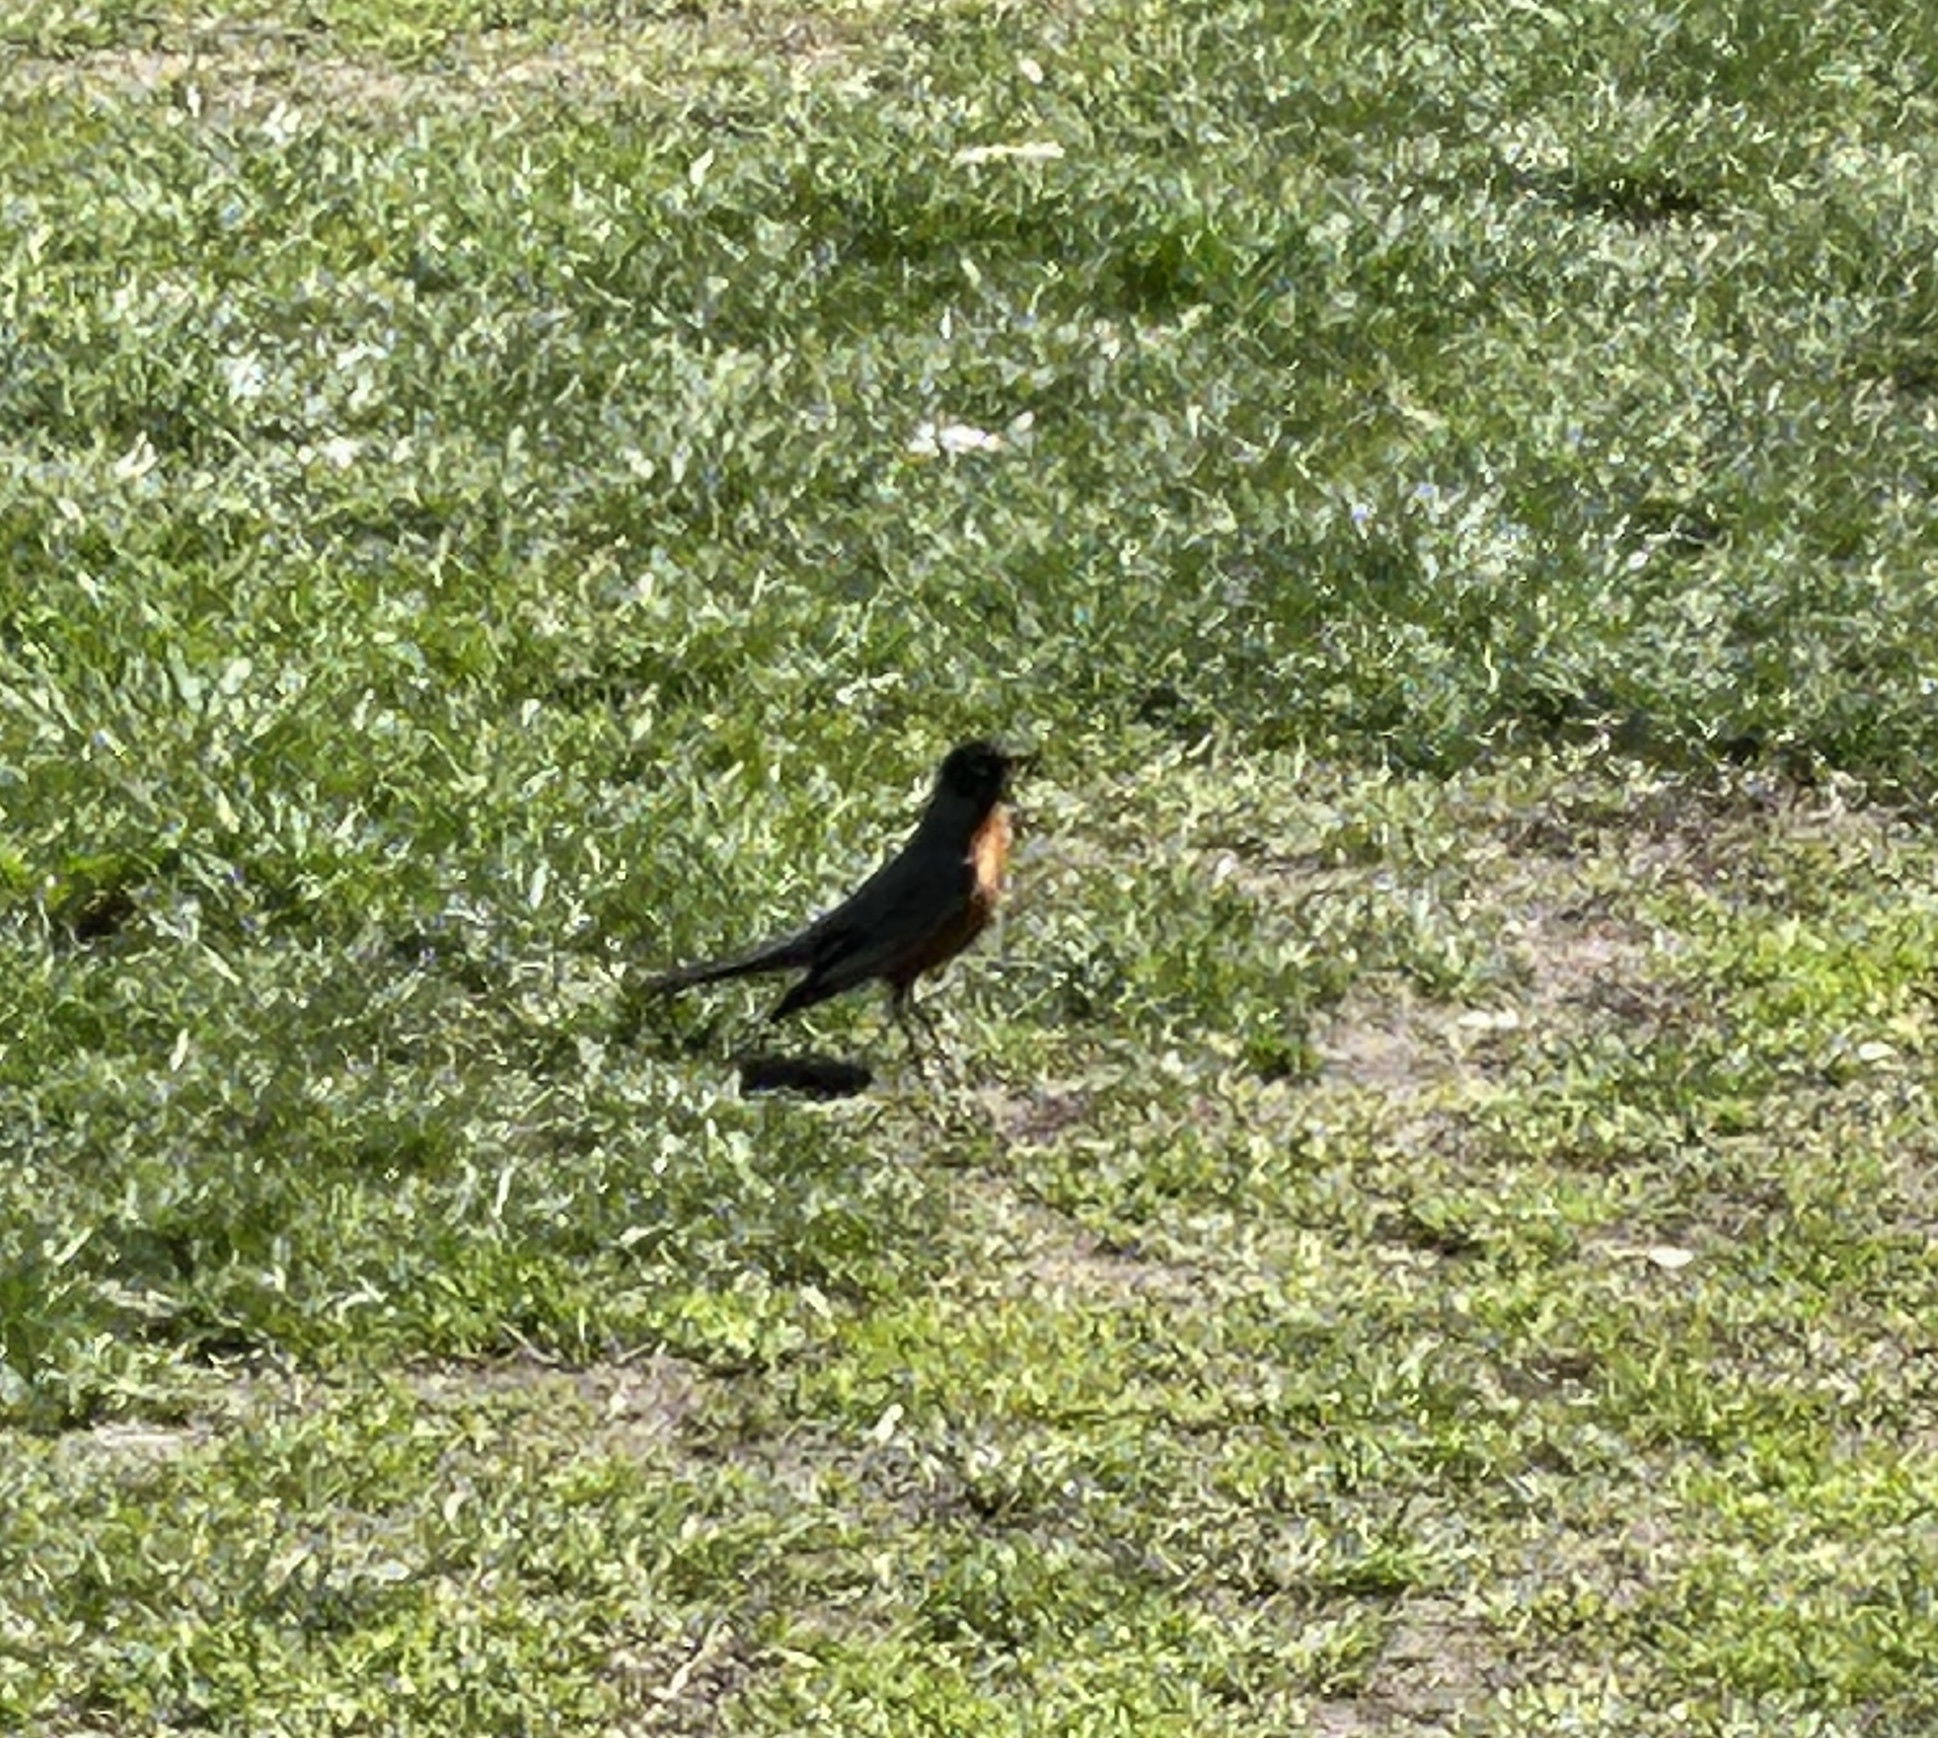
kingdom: Animalia
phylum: Chordata
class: Aves
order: Passeriformes
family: Turdidae
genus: Turdus
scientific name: Turdus migratorius
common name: American robin
